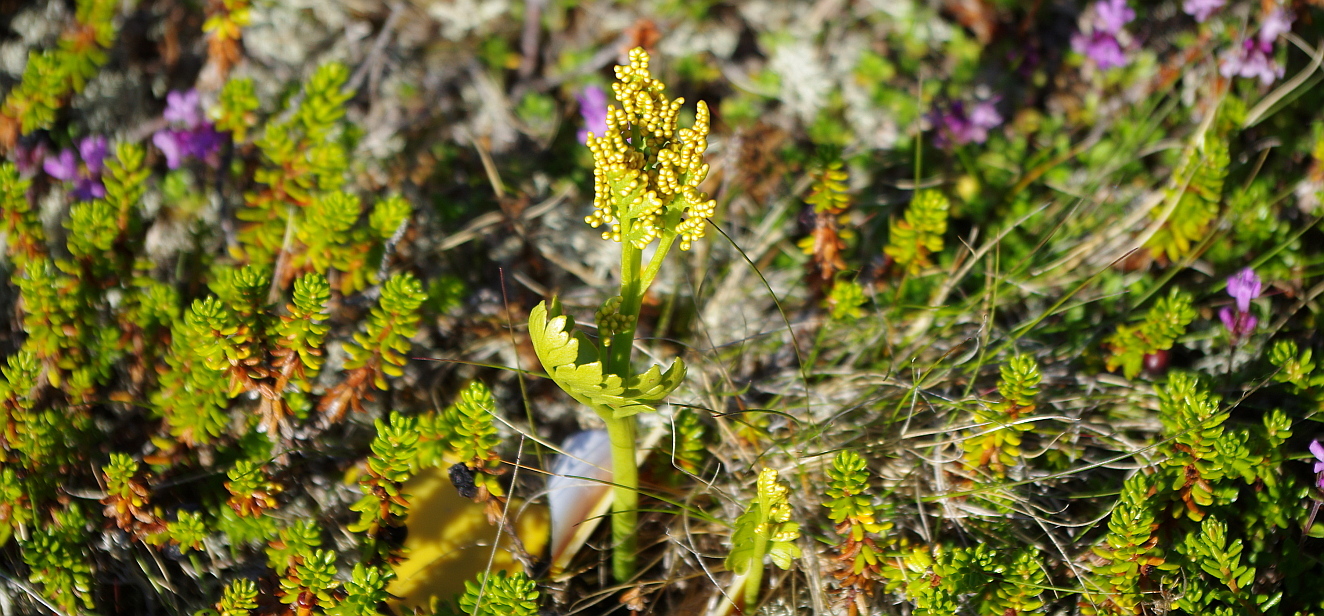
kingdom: Plantae
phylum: Tracheophyta
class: Magnoliopsida
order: Ericales
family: Ericaceae
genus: Empetrum
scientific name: Empetrum nigrum
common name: Black crowberry
